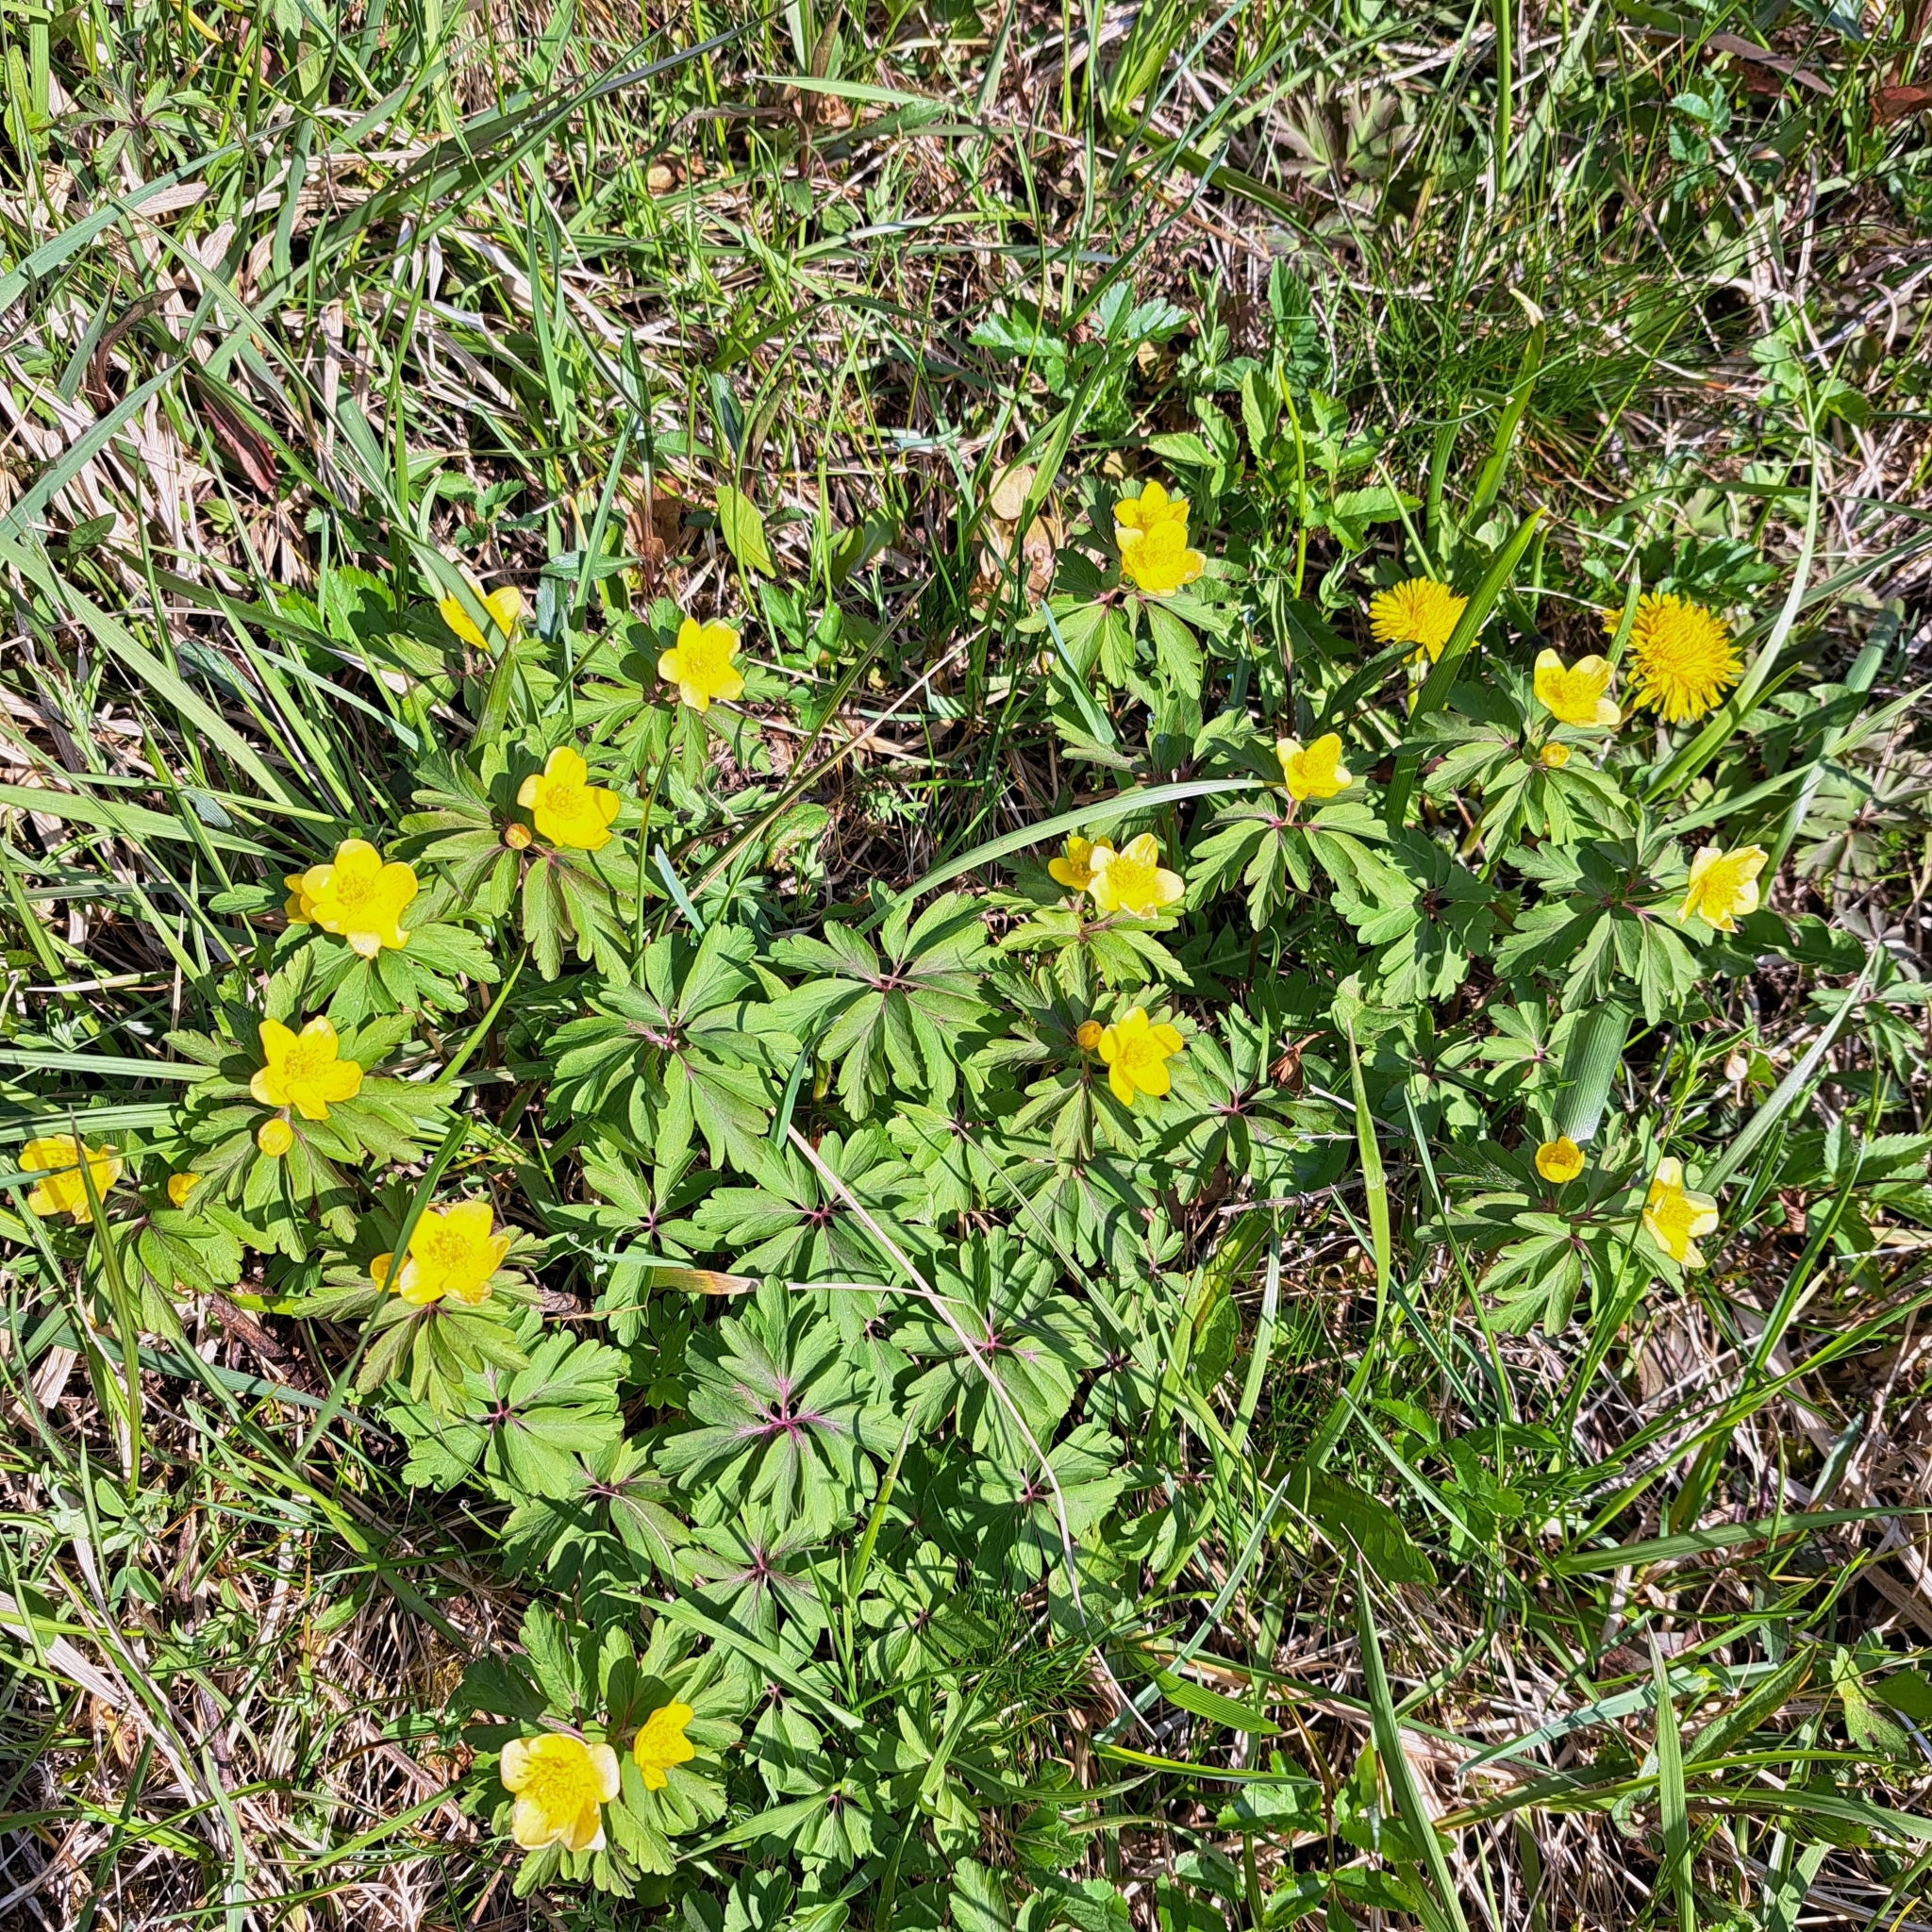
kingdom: Plantae
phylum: Tracheophyta
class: Magnoliopsida
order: Ranunculales
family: Ranunculaceae
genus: Anemone
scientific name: Anemone ranunculoides
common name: Yellow anemone
